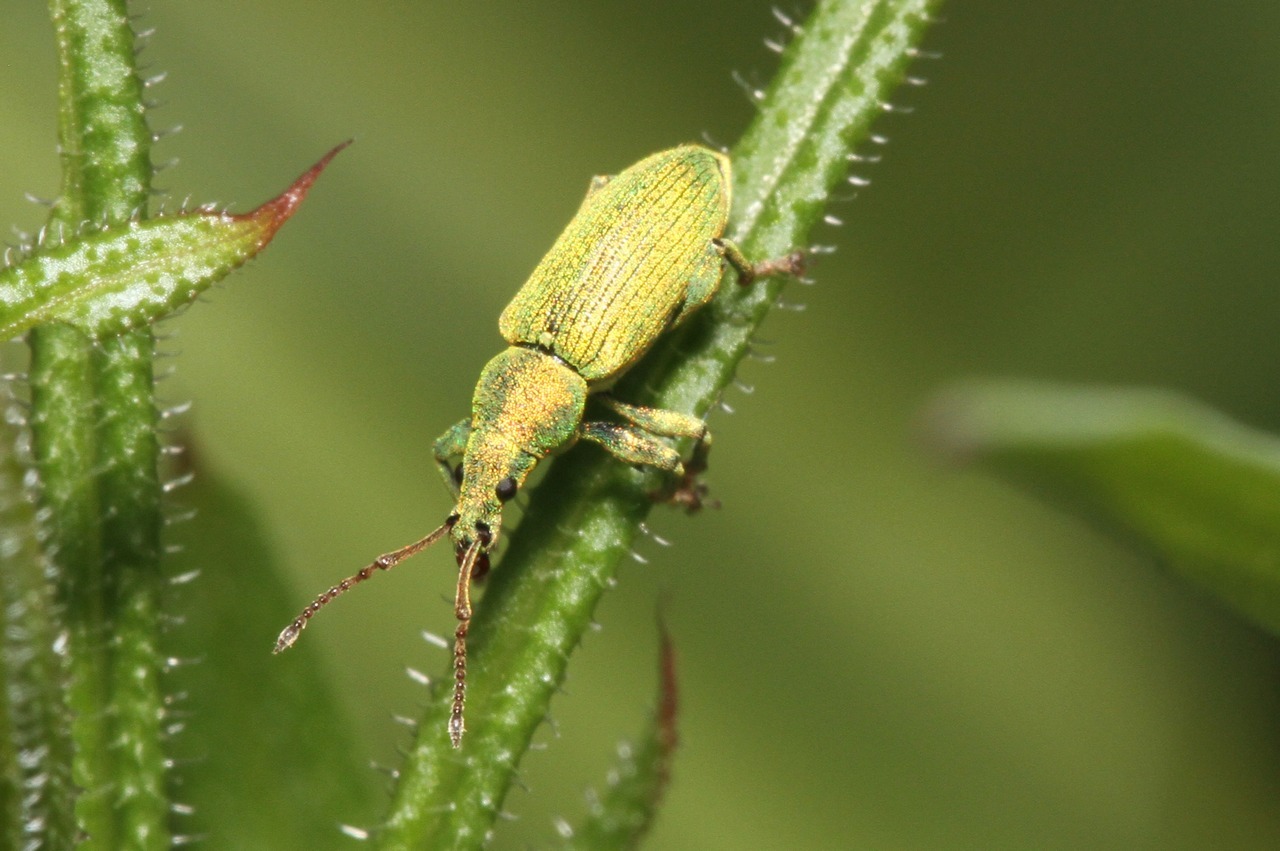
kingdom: Animalia
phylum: Arthropoda
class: Insecta
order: Coleoptera
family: Curculionidae
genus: Phyllobius
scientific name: Phyllobius maculicornis
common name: Green leaf weevil
